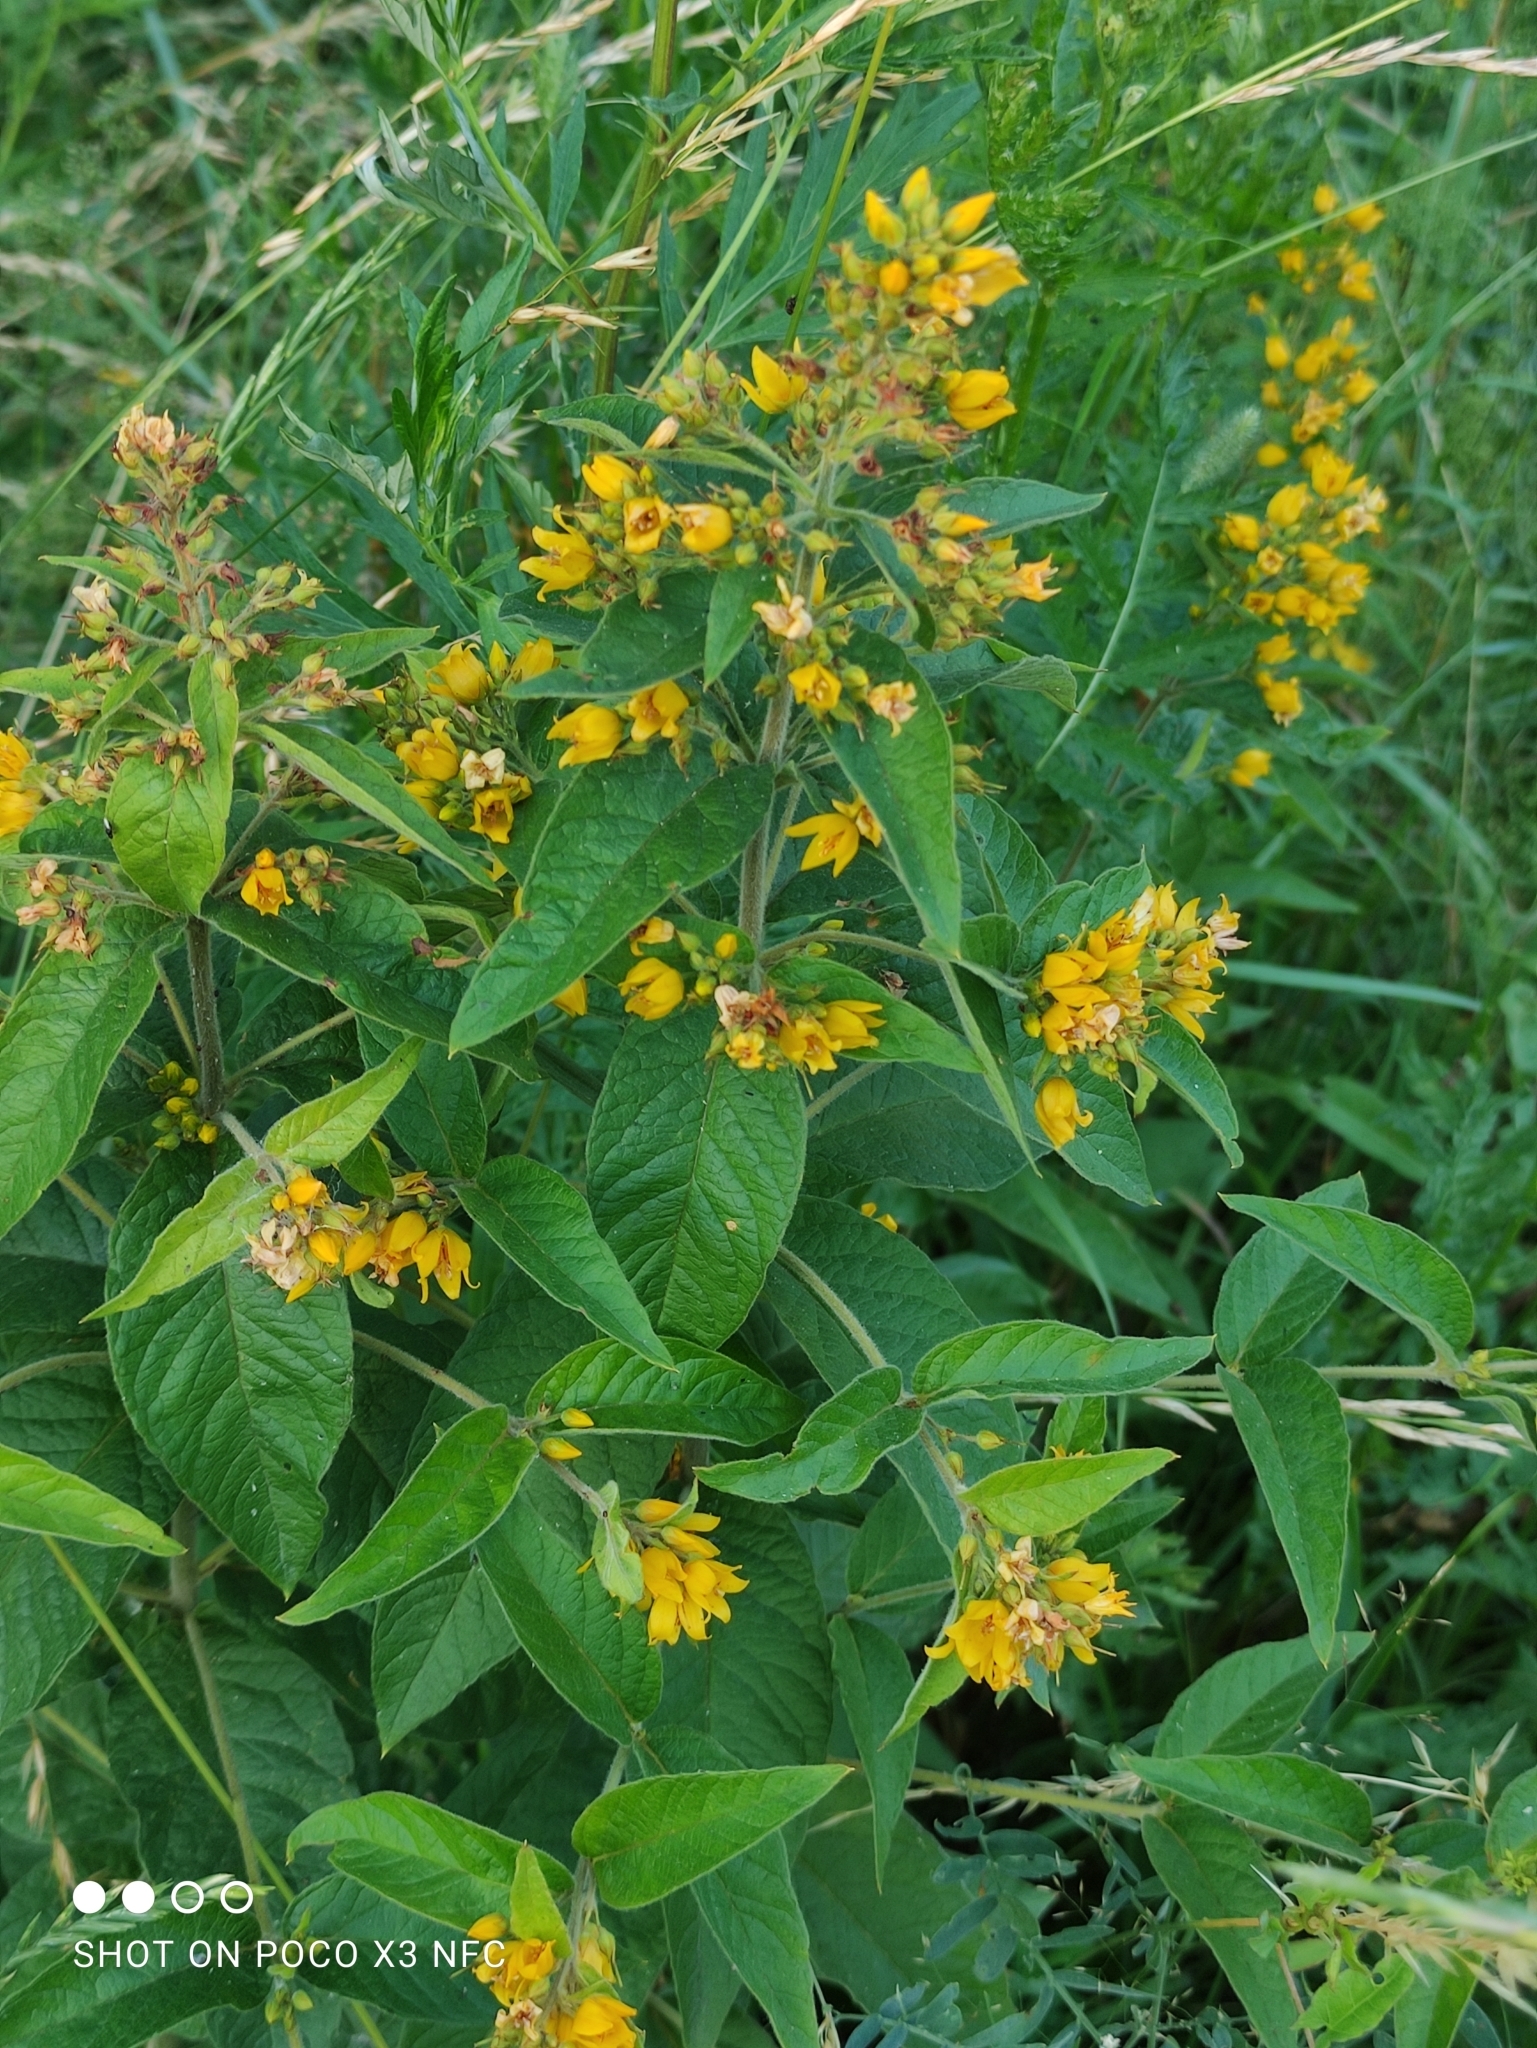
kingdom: Plantae
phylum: Tracheophyta
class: Magnoliopsida
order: Ericales
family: Primulaceae
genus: Lysimachia
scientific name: Lysimachia vulgaris
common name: Yellow loosestrife
